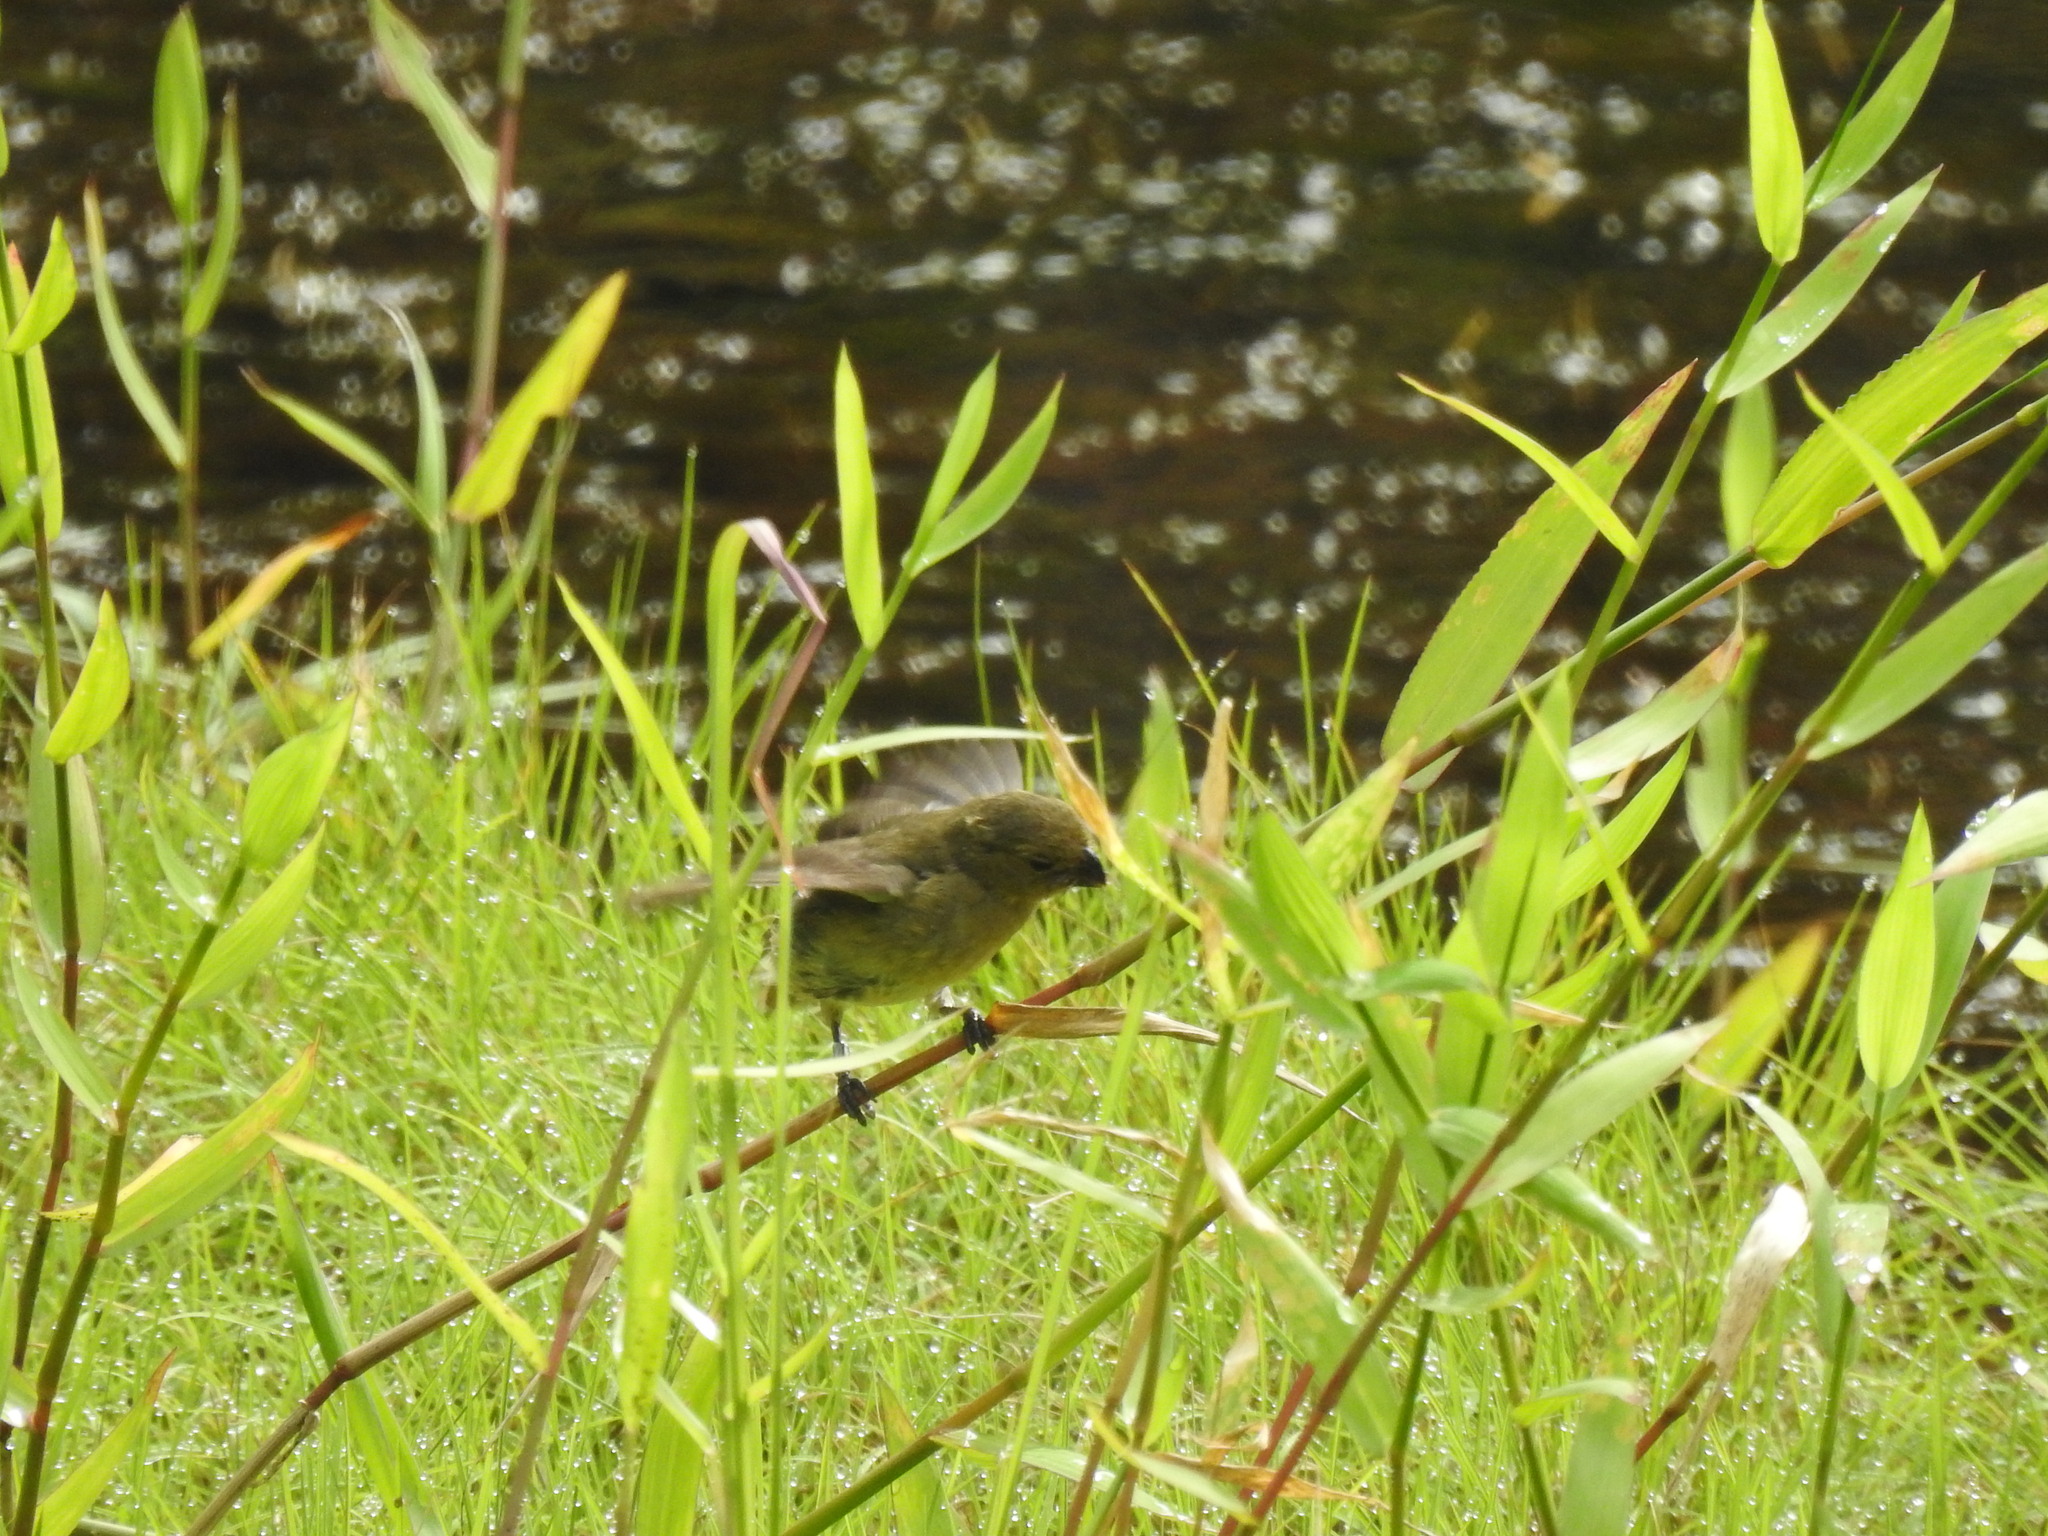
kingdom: Animalia
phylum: Chordata
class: Aves
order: Passeriformes
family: Thraupidae
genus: Sporophila
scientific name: Sporophila corvina
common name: Variable seedeater
